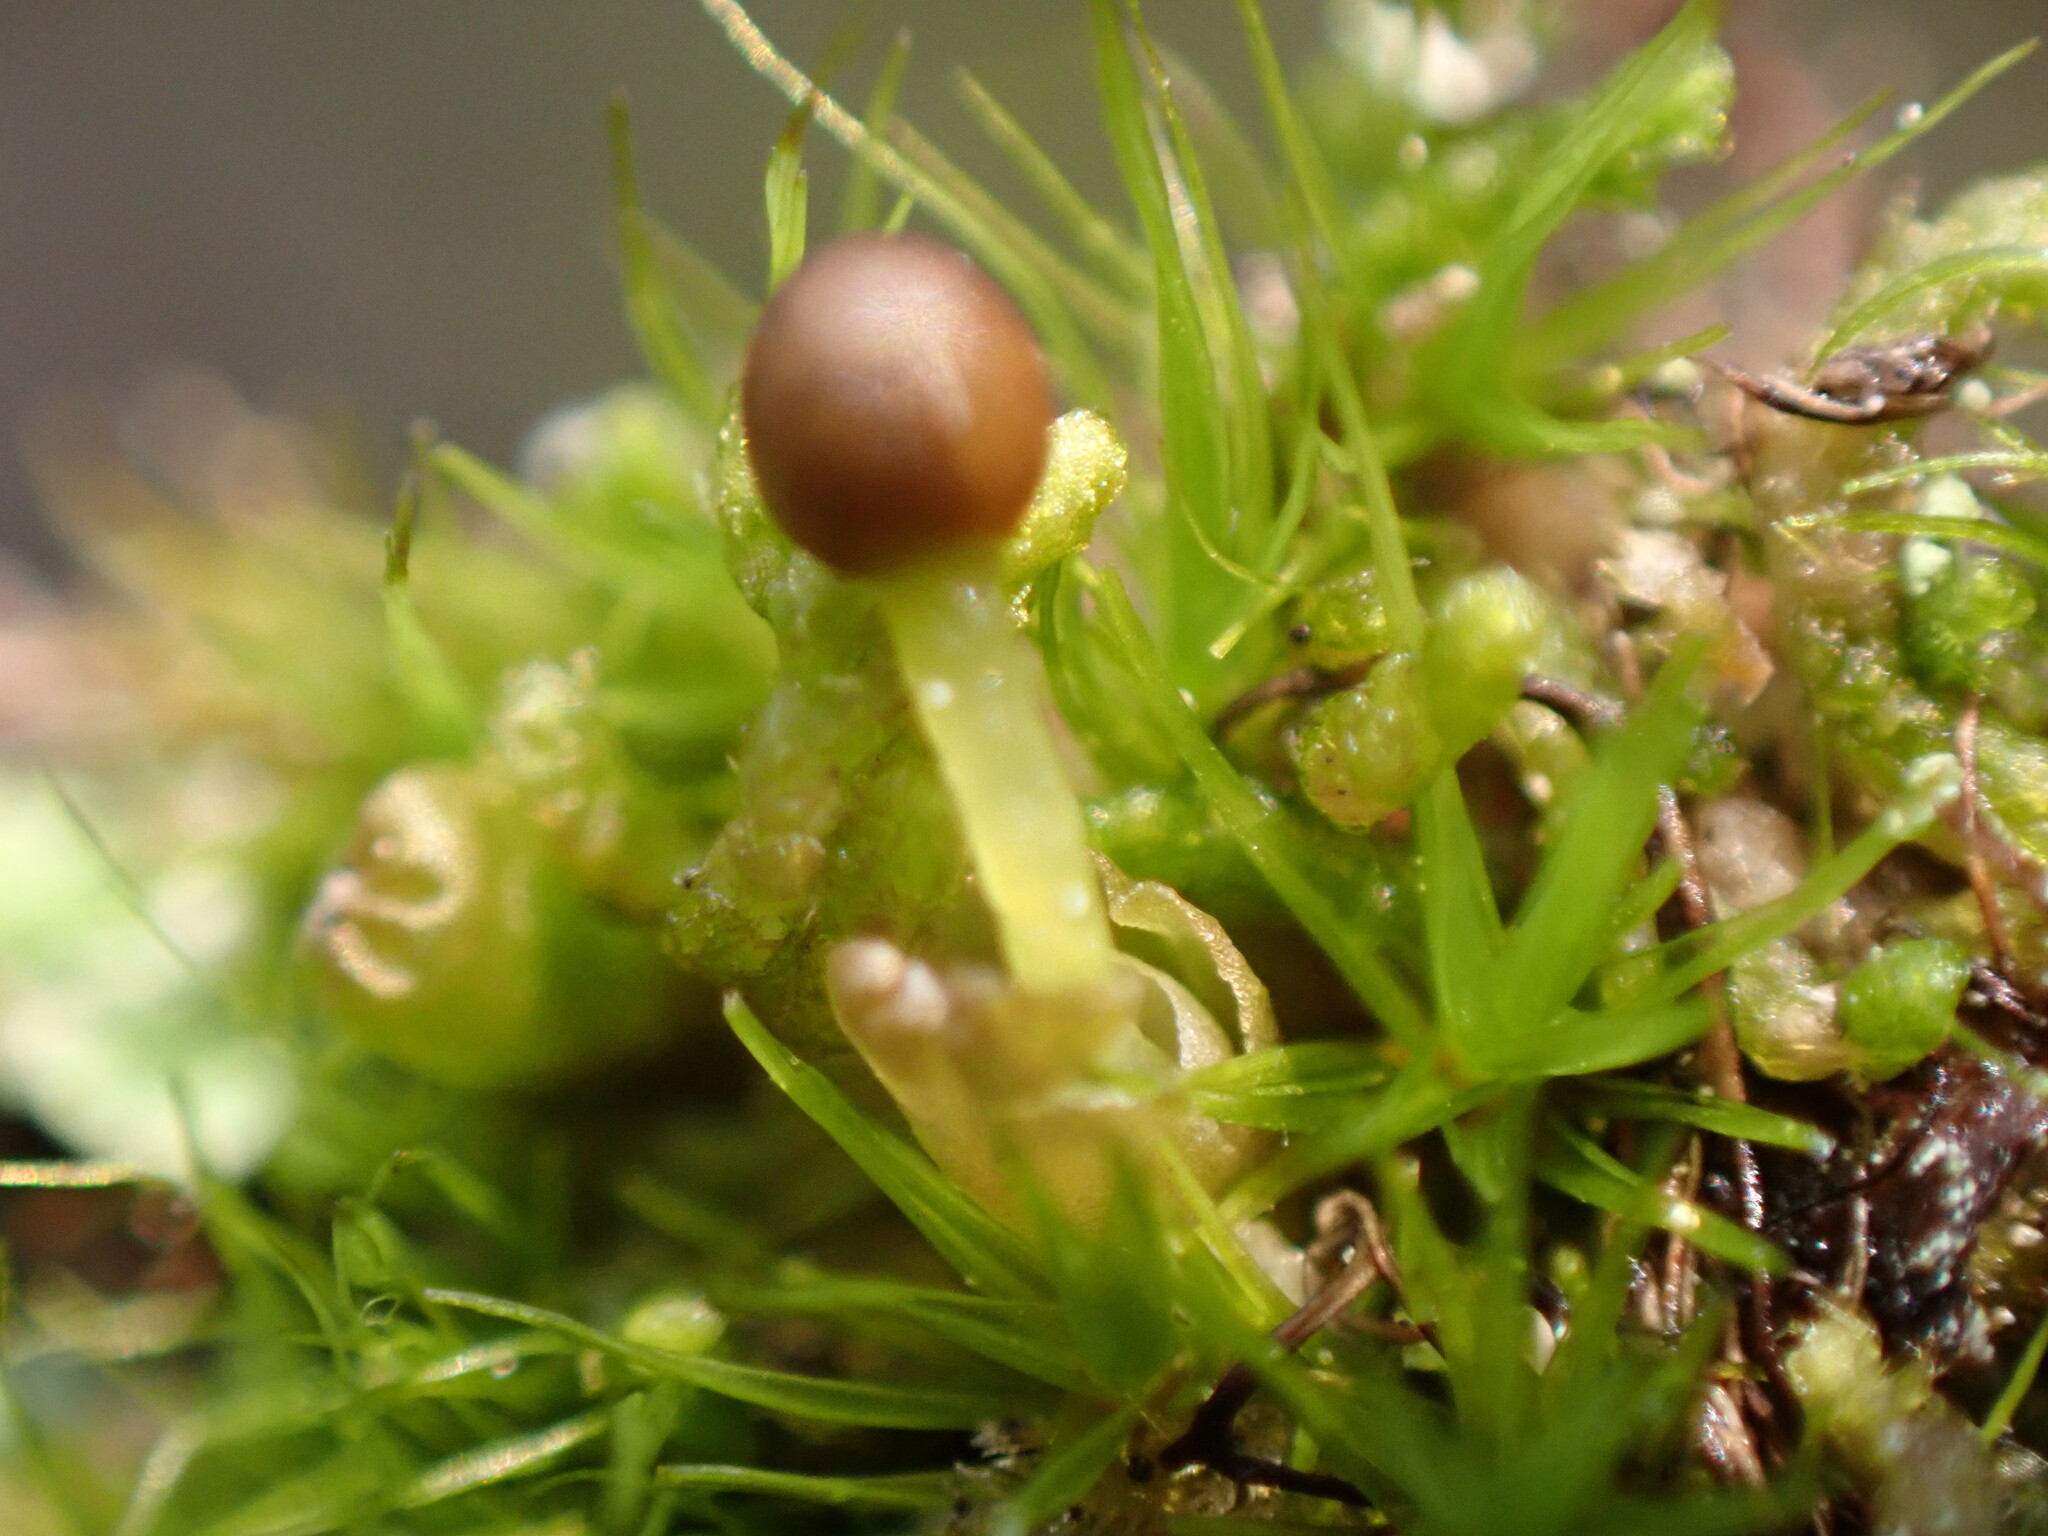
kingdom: Plantae
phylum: Marchantiophyta
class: Jungermanniopsida
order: Ptilidiales
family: Ptilidiaceae
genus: Ptilidium
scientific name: Ptilidium pulcherrimum
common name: Tree fringewort
